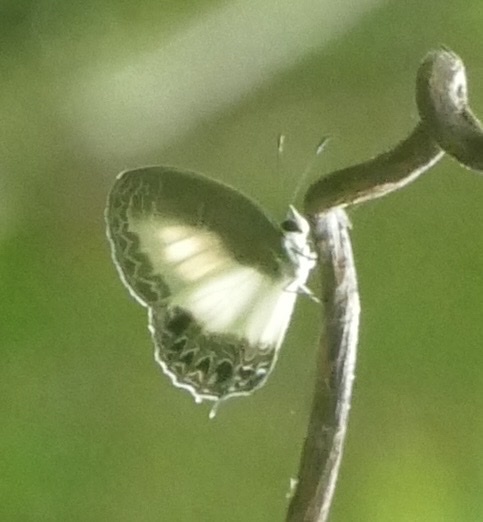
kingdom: Animalia
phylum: Arthropoda
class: Insecta
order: Lepidoptera
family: Lycaenidae
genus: Jamides
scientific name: Jamides cyta
